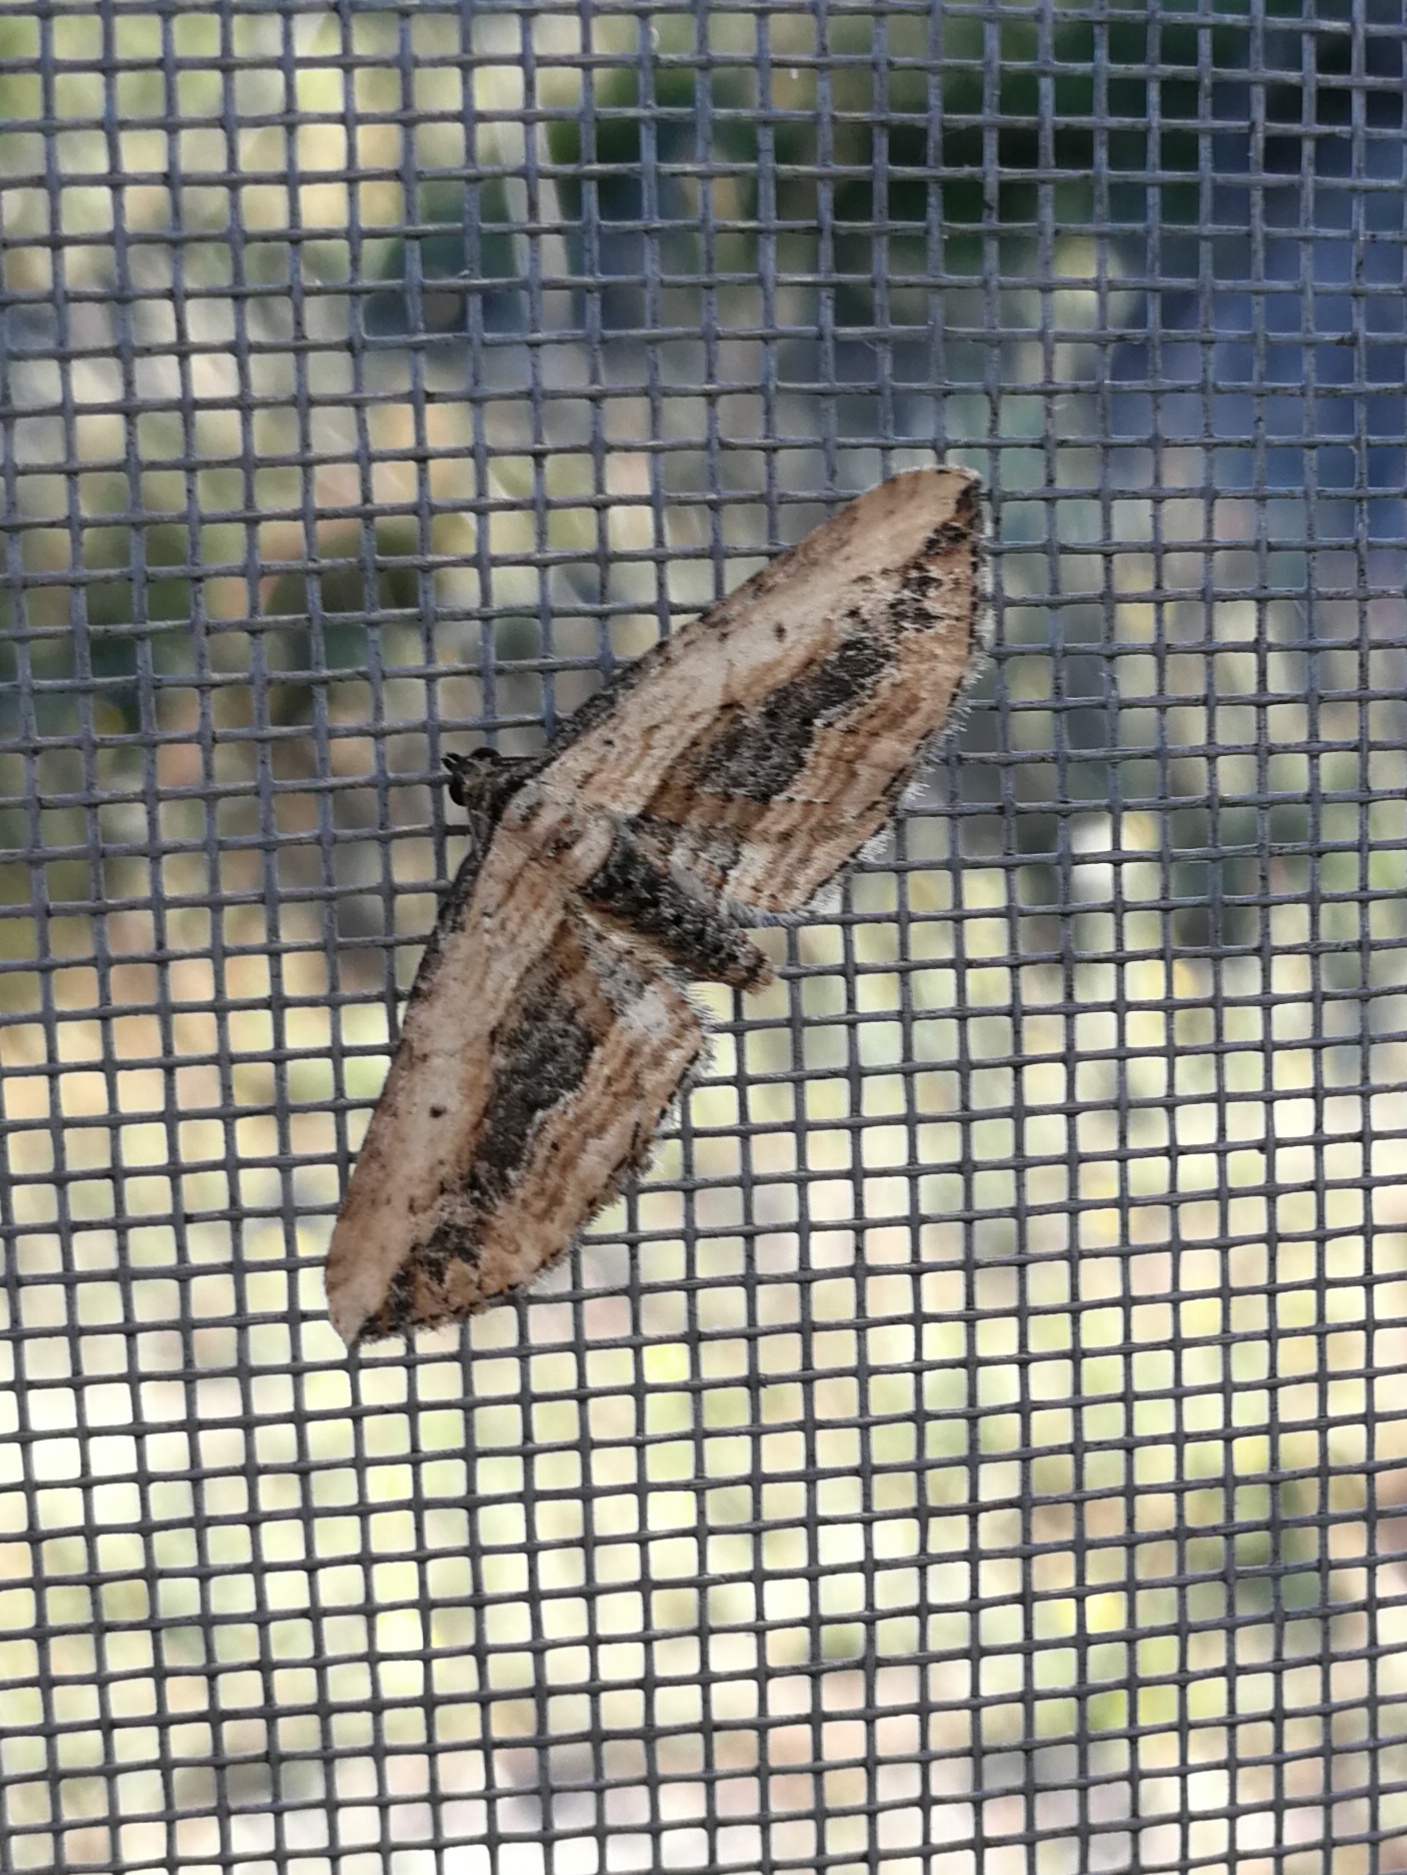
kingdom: Animalia
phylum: Arthropoda
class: Insecta
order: Lepidoptera
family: Geometridae
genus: Horisme
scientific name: Horisme vitalbata
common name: Small waved umber
